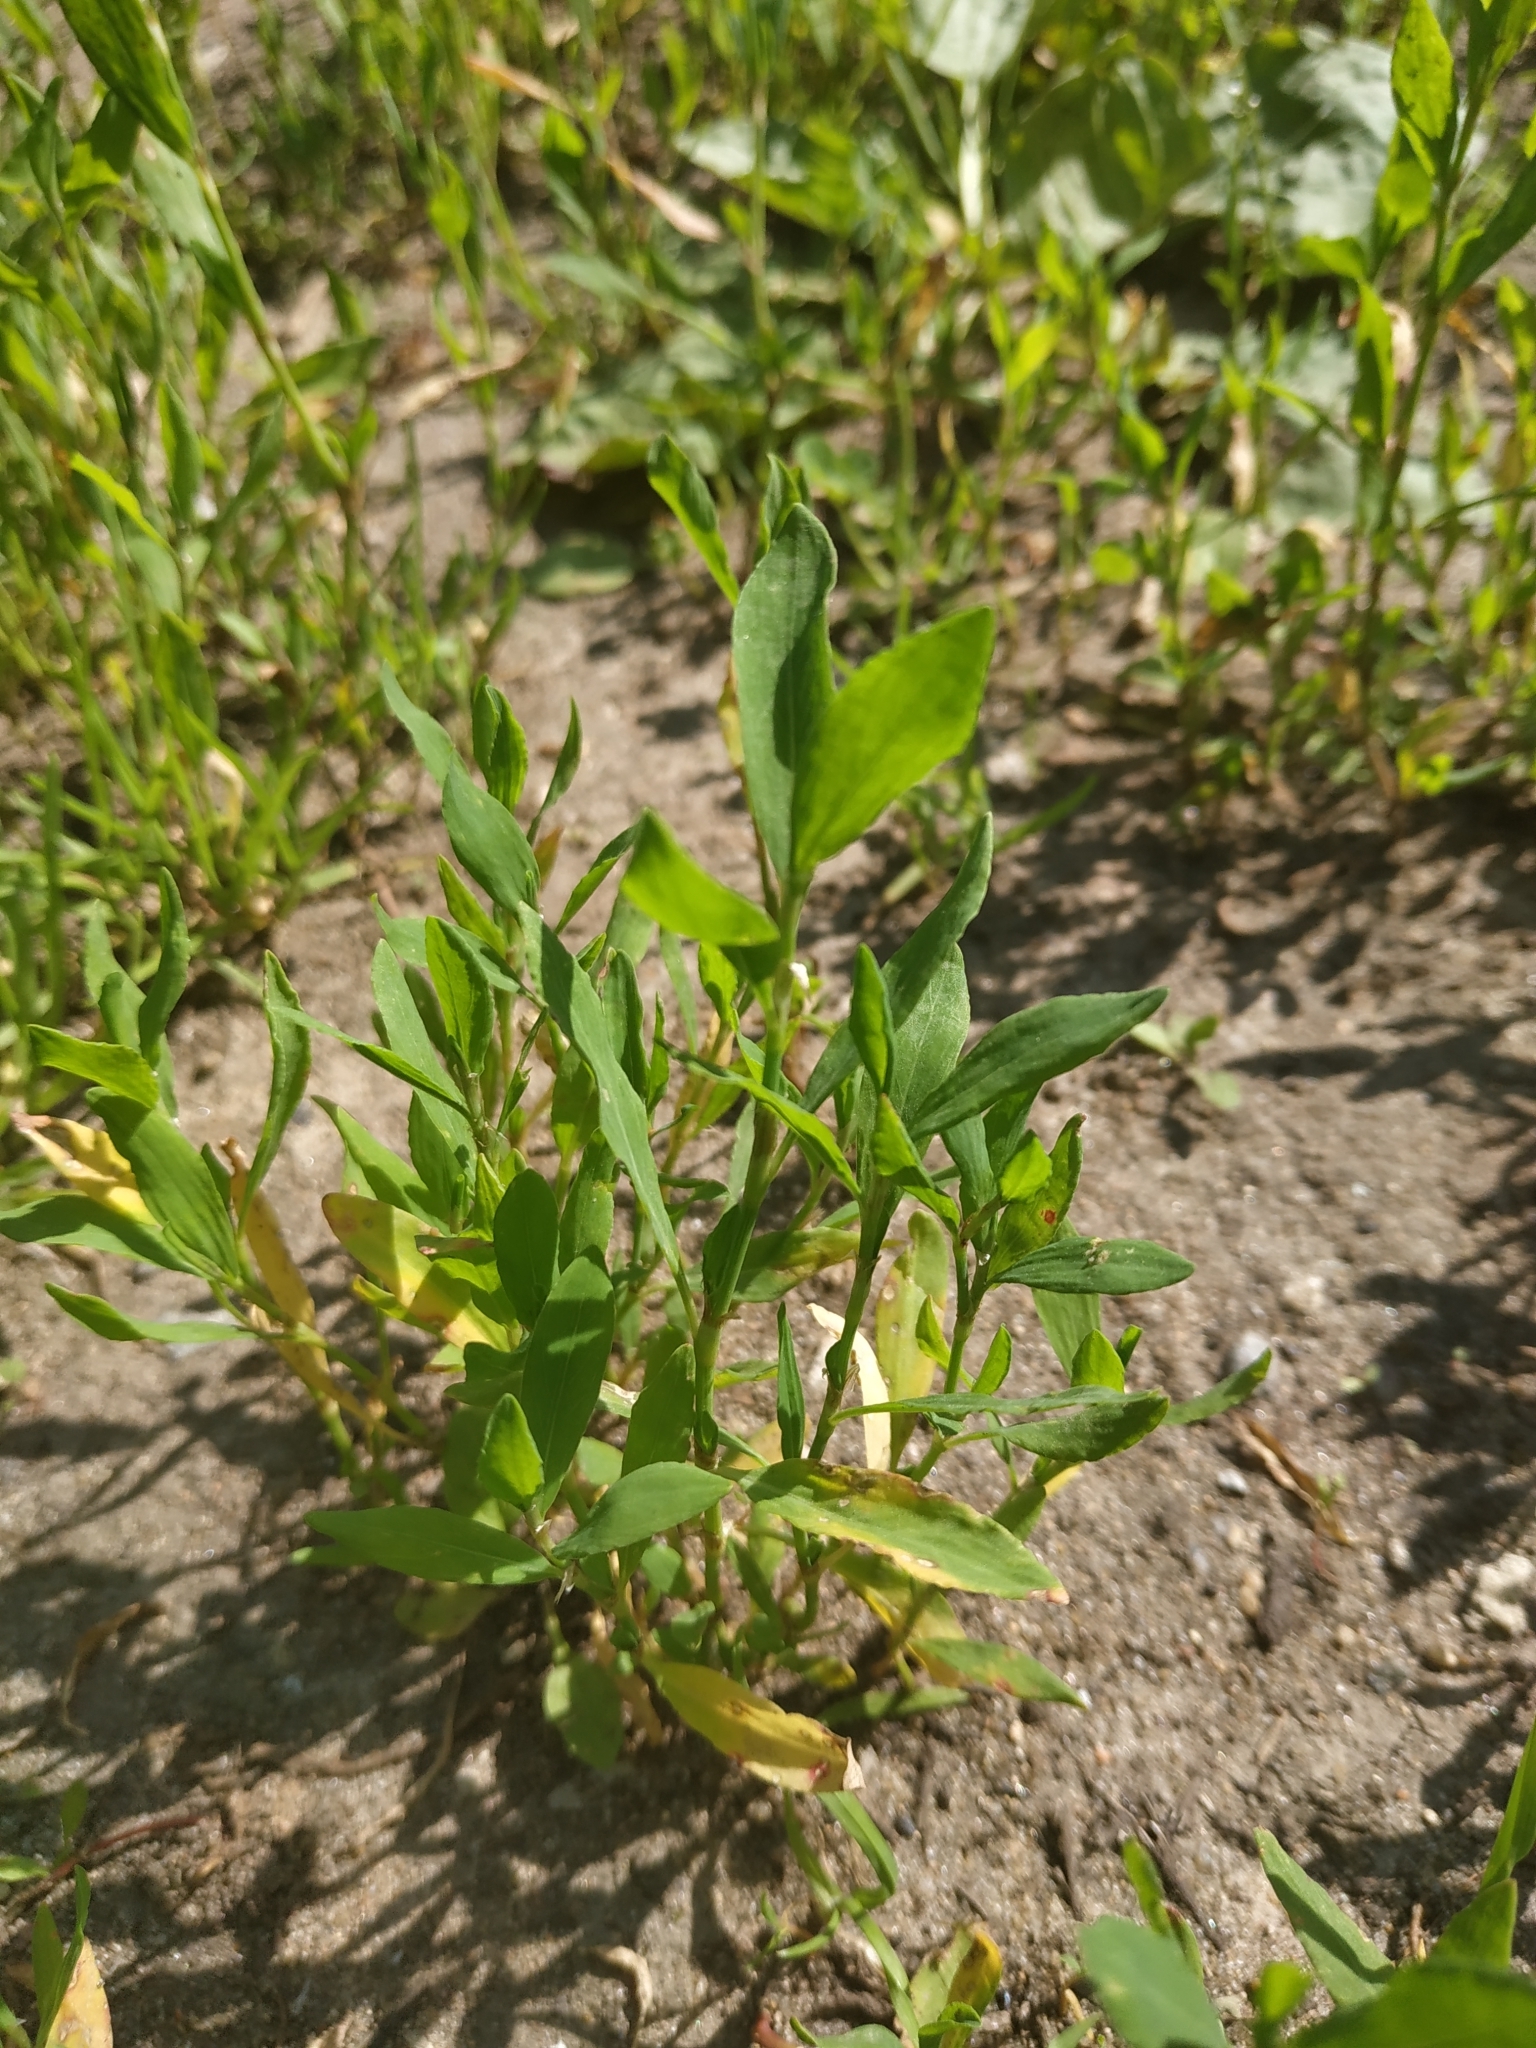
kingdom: Plantae
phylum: Tracheophyta
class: Magnoliopsida
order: Caryophyllales
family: Polygonaceae
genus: Polygonum
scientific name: Polygonum
